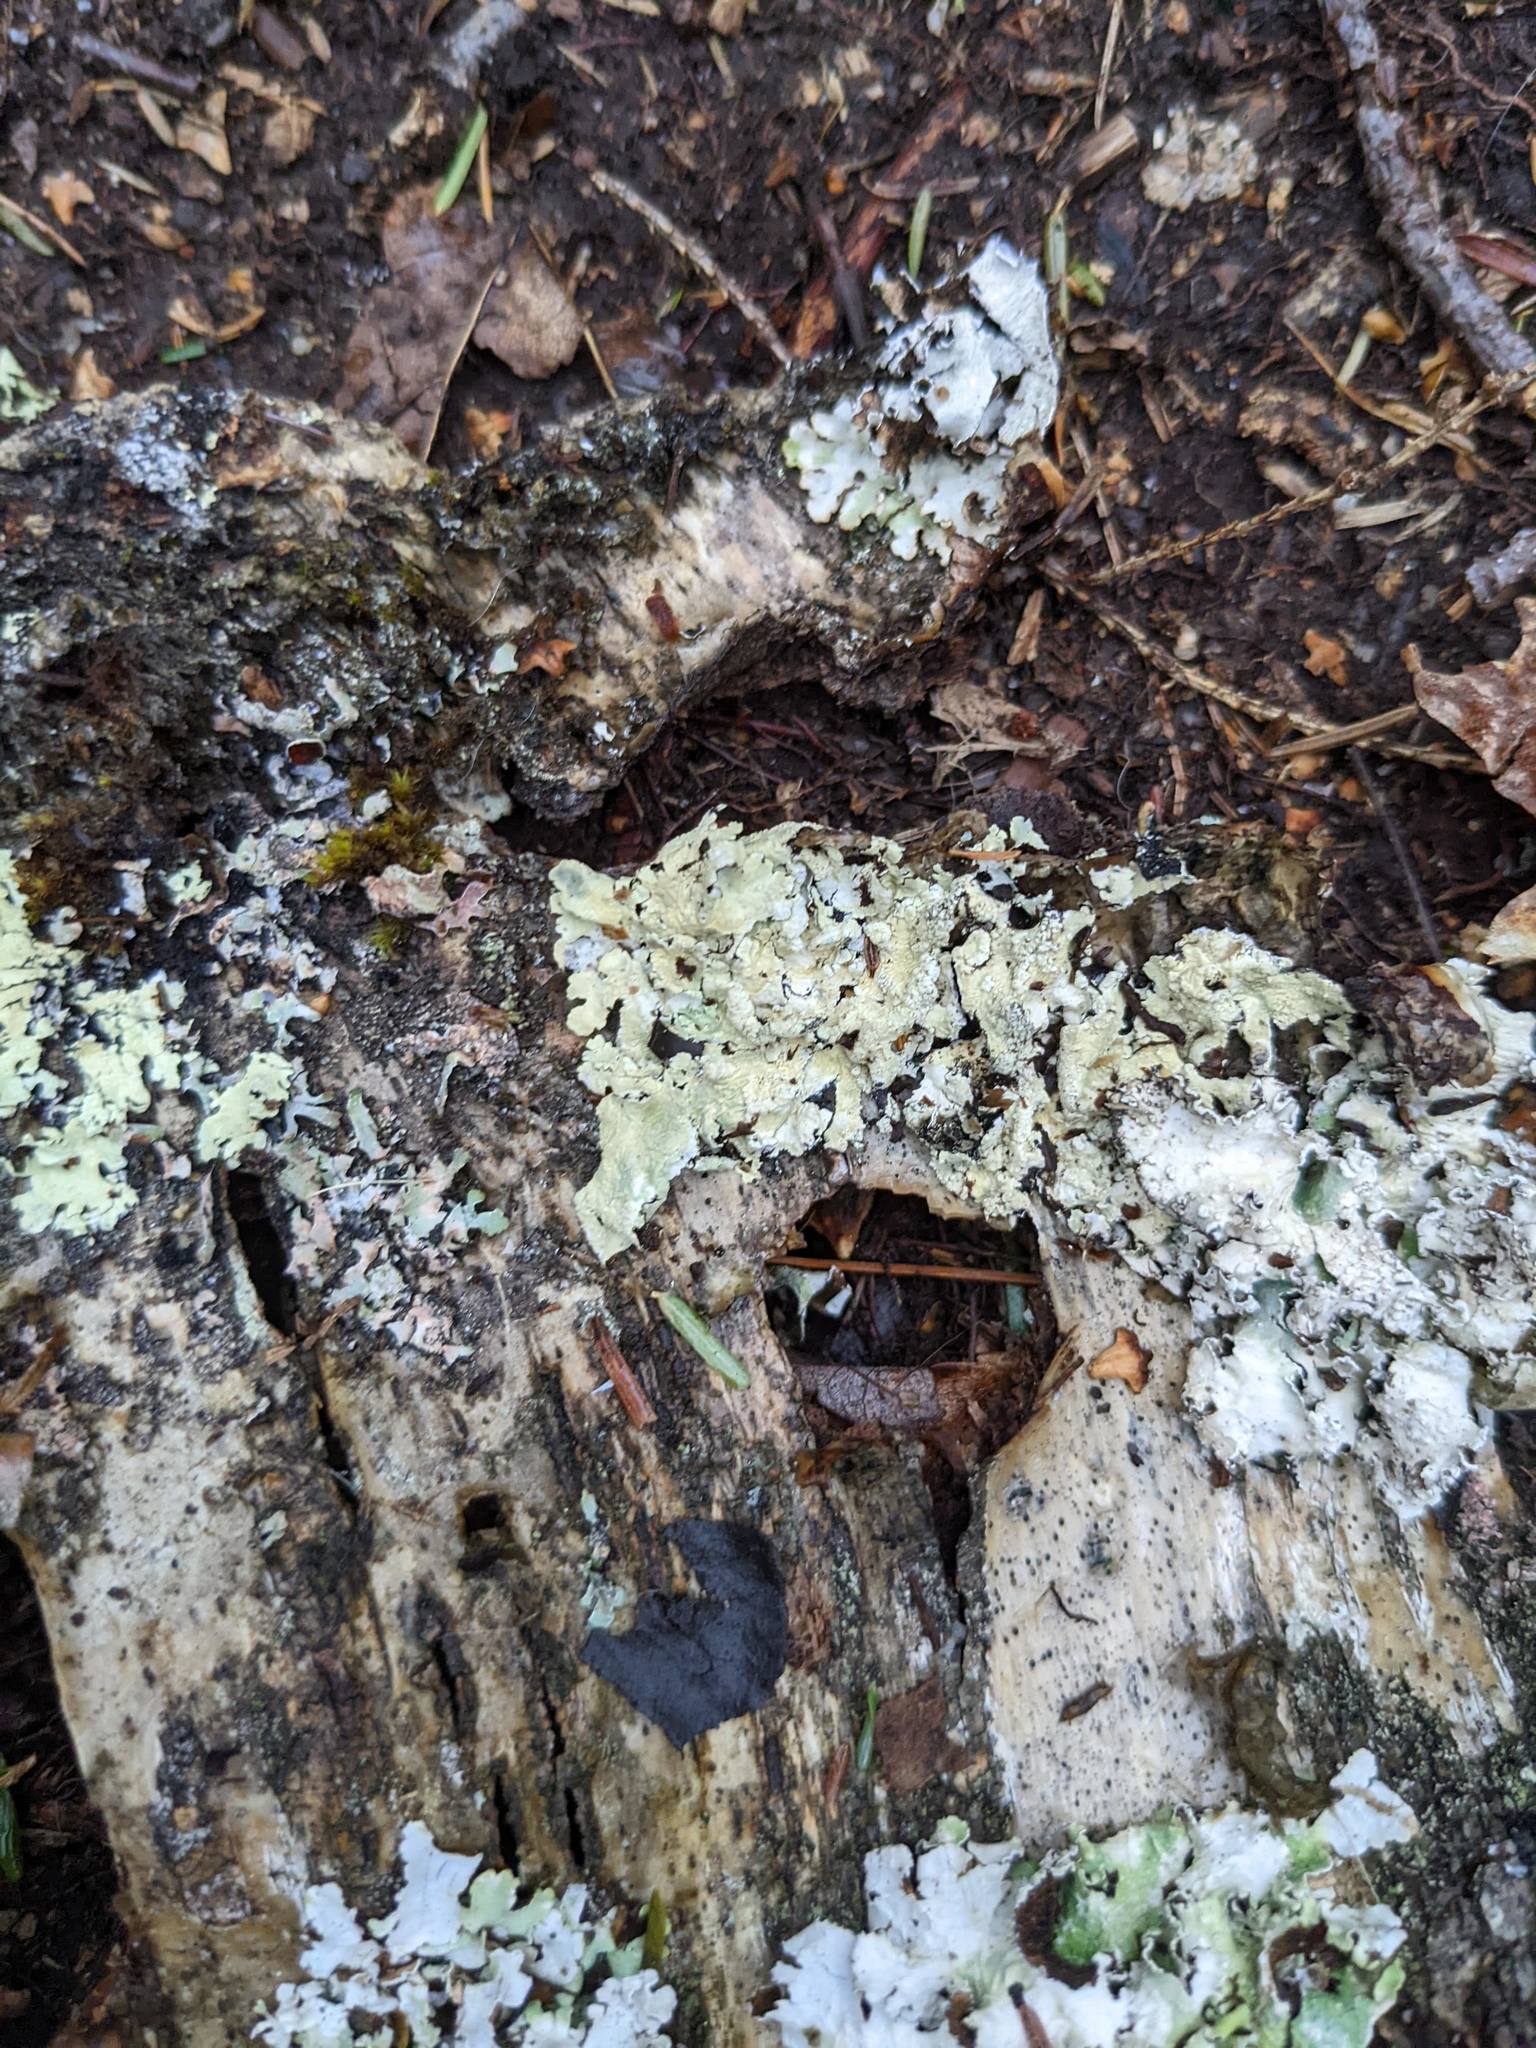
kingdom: Fungi
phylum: Ascomycota
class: Lecanoromycetes
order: Lecanorales
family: Parmeliaceae
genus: Flavoparmelia
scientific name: Flavoparmelia caperata
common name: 40-mile per hour lichen
